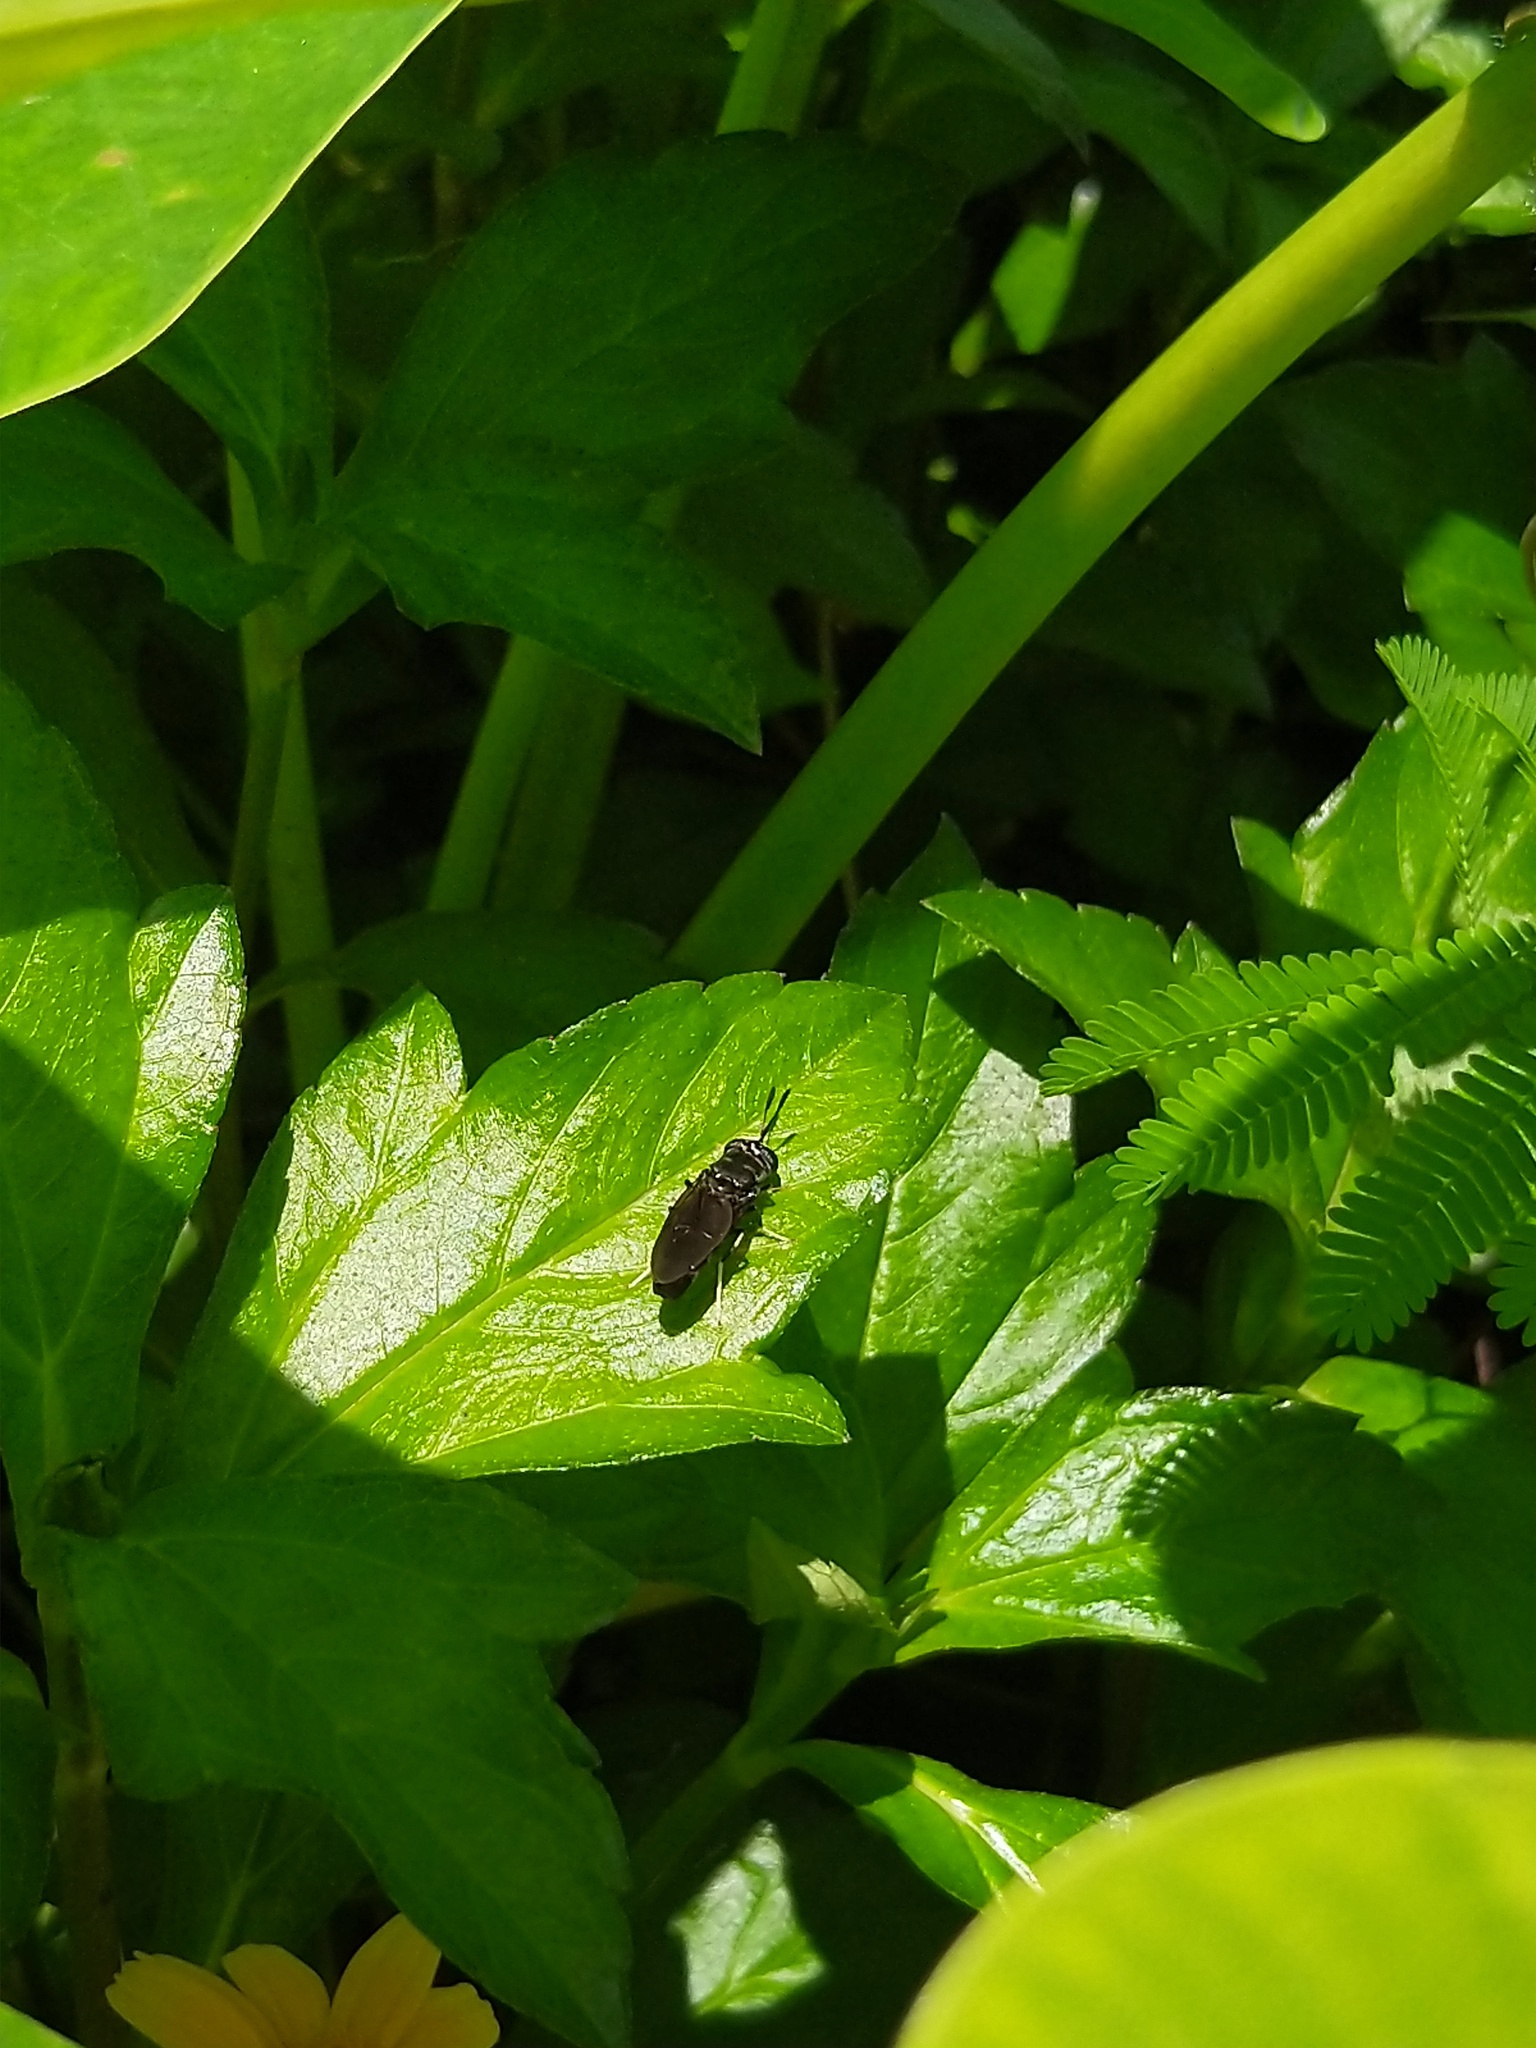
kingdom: Animalia
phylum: Arthropoda
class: Insecta
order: Diptera
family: Stratiomyidae
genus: Hermetia
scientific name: Hermetia illucens
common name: Black soldier fly
